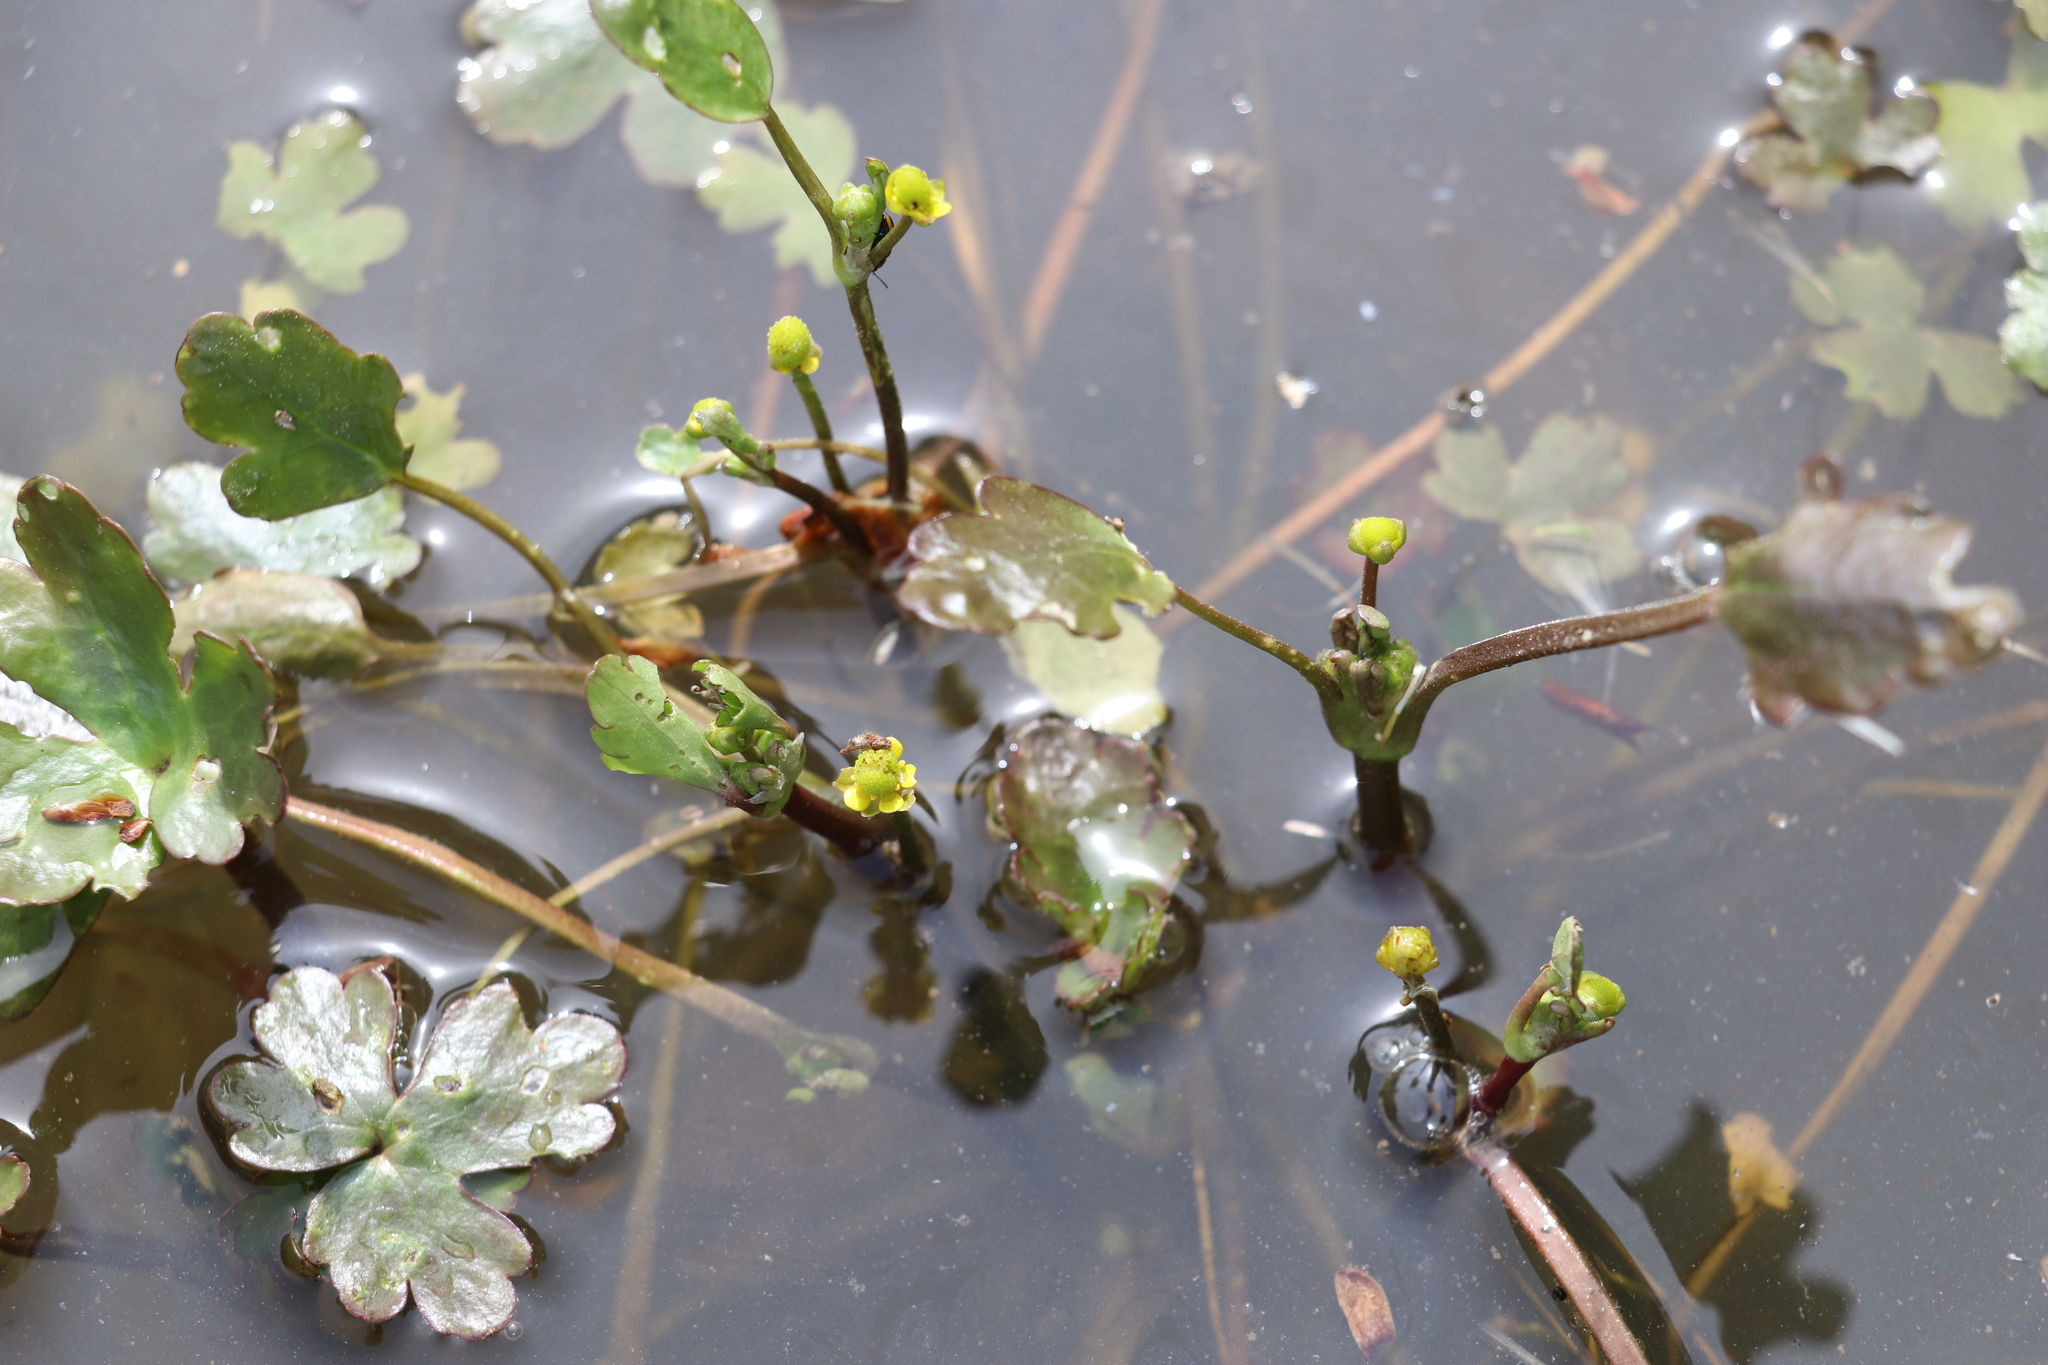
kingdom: Plantae
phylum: Tracheophyta
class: Magnoliopsida
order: Ranunculales
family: Ranunculaceae
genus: Ranunculus
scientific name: Ranunculus sceleratus
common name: Celery-leaved buttercup
